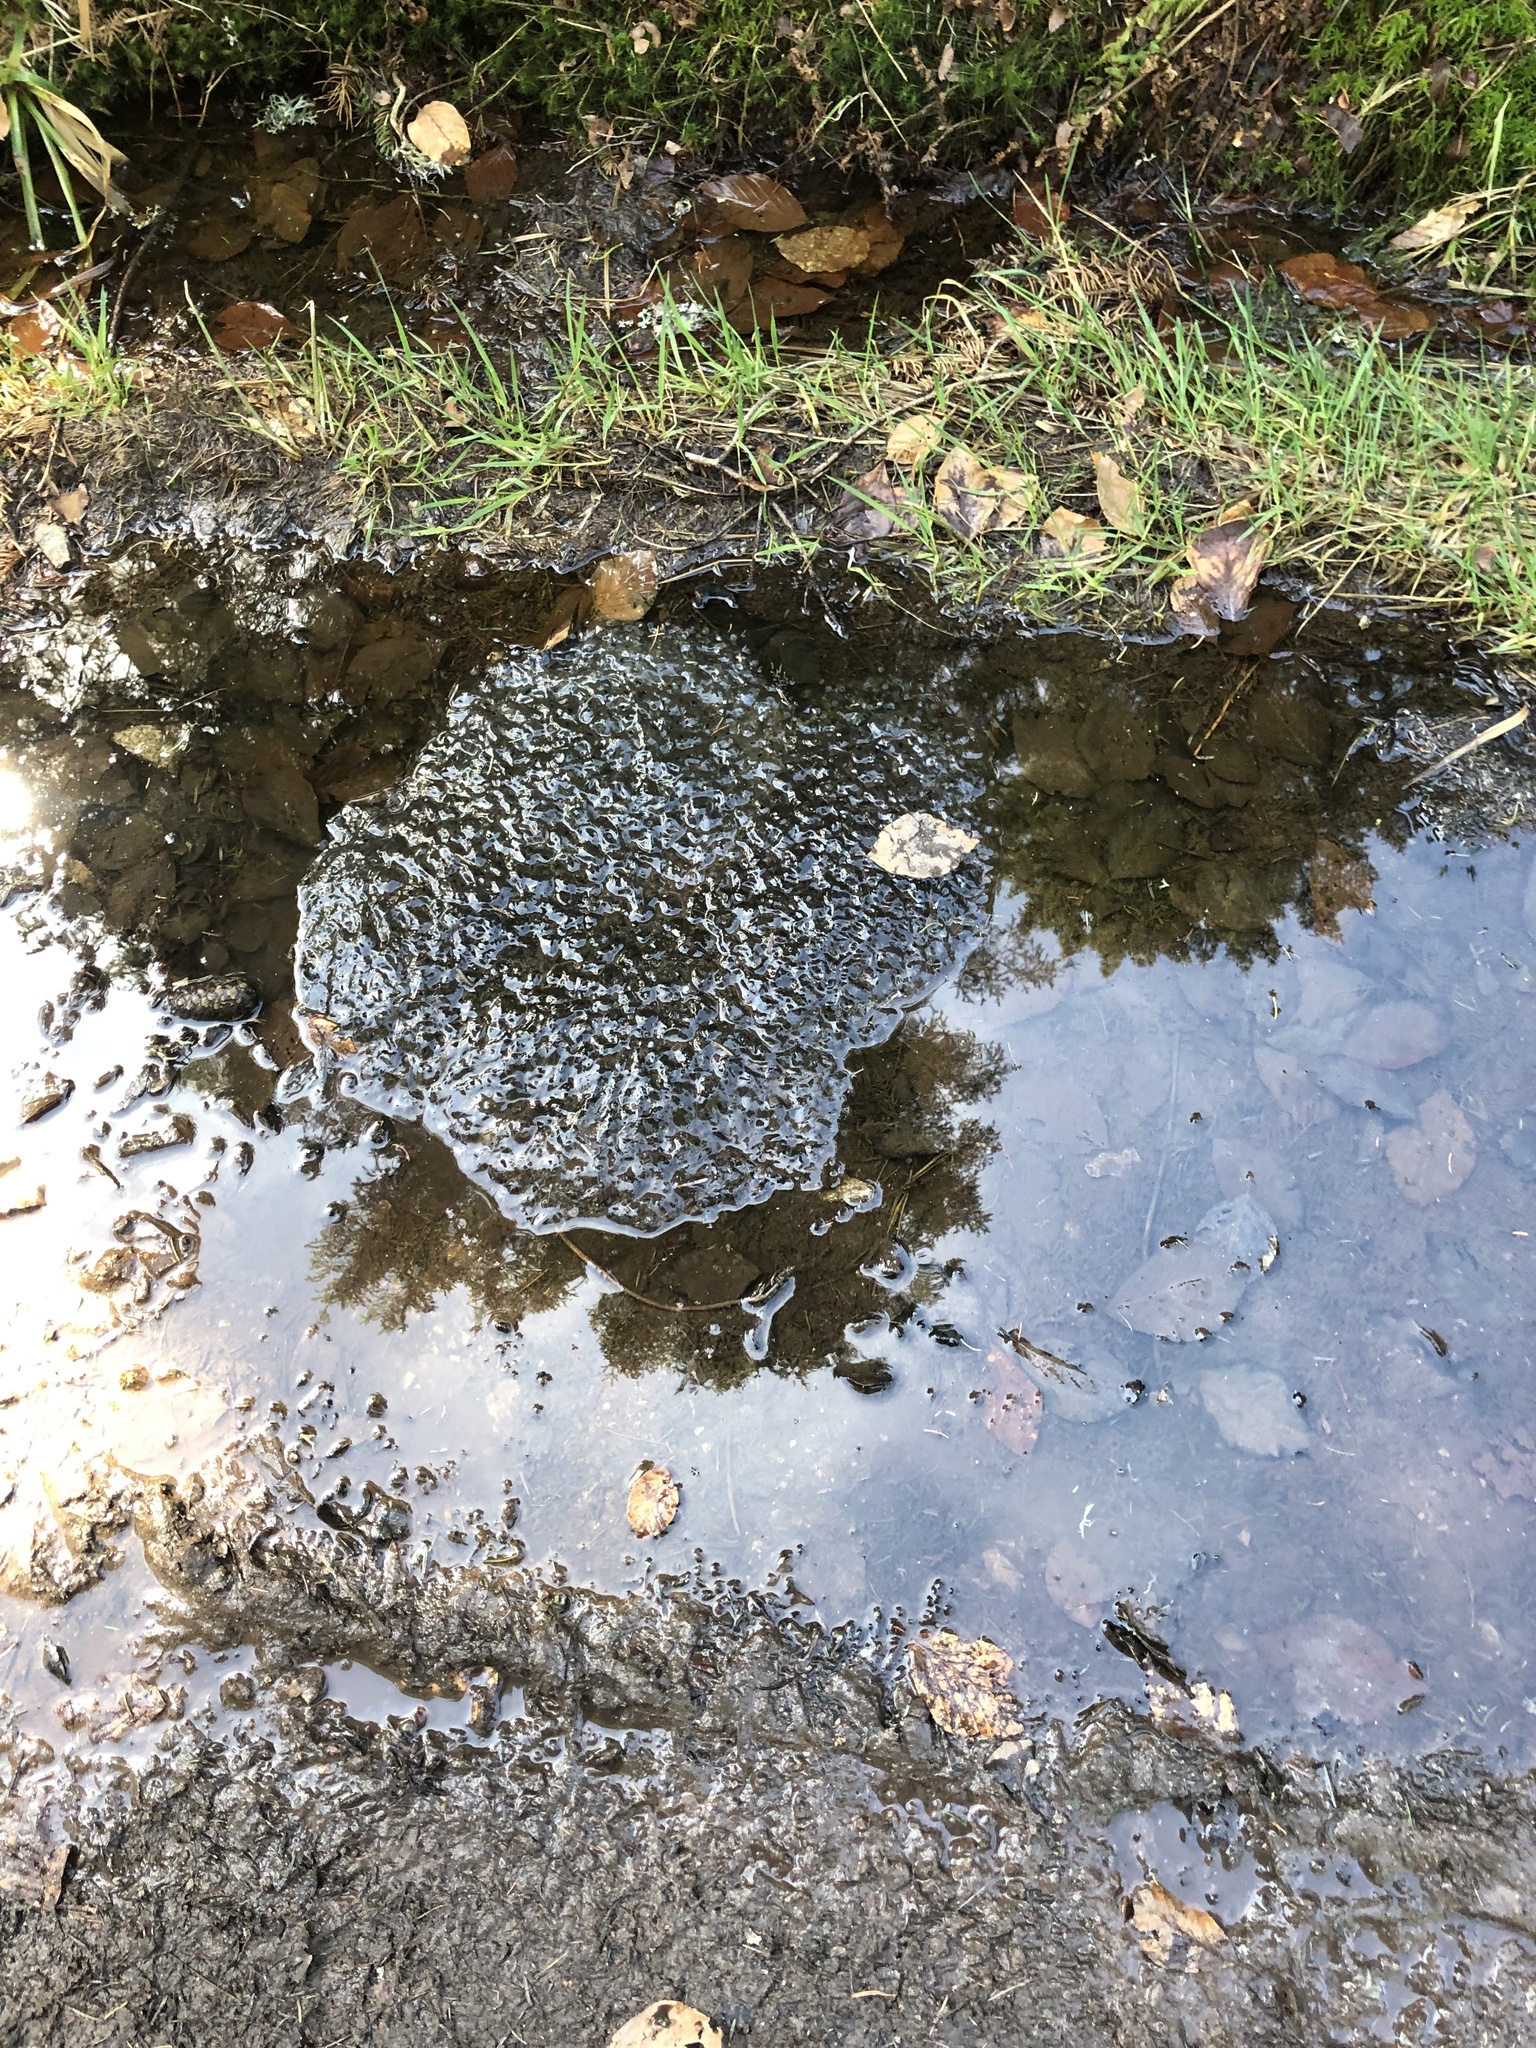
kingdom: Animalia
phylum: Chordata
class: Amphibia
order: Anura
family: Ranidae
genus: Rana
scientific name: Rana temporaria
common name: Common frog
